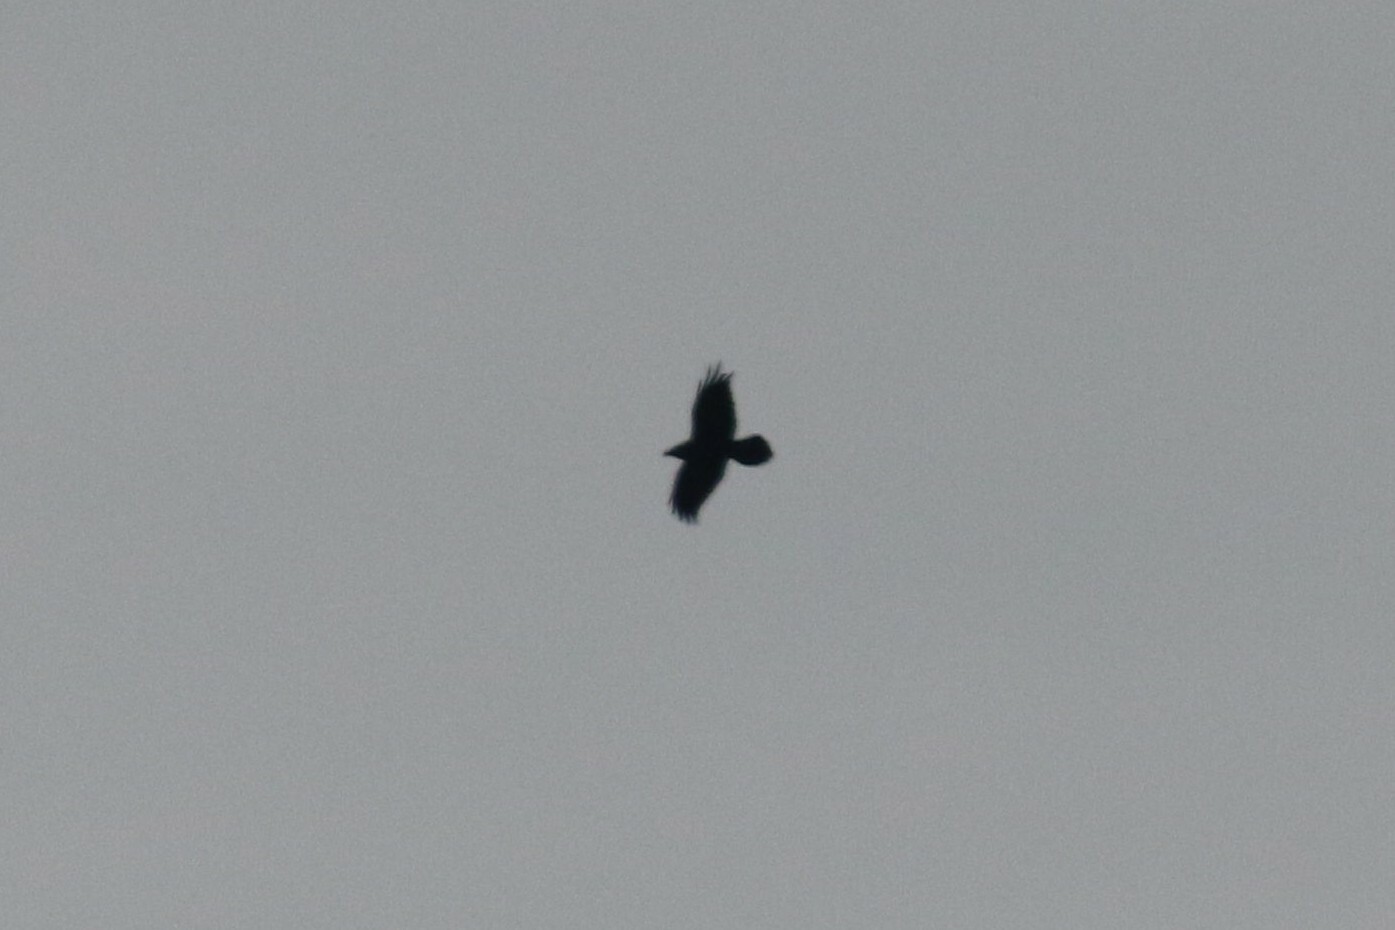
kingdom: Animalia
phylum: Chordata
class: Aves
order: Passeriformes
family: Corvidae
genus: Corvus
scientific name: Corvus corax
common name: Common raven
